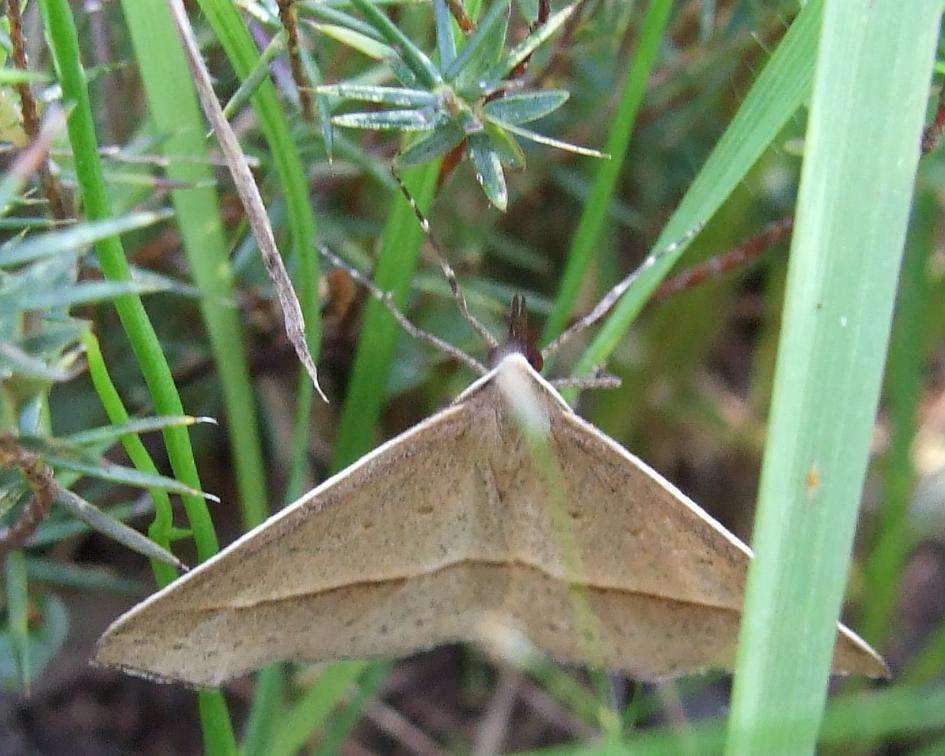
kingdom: Animalia
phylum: Arthropoda
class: Insecta
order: Lepidoptera
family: Geometridae
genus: Epidesmia
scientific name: Epidesmia tryxaria
